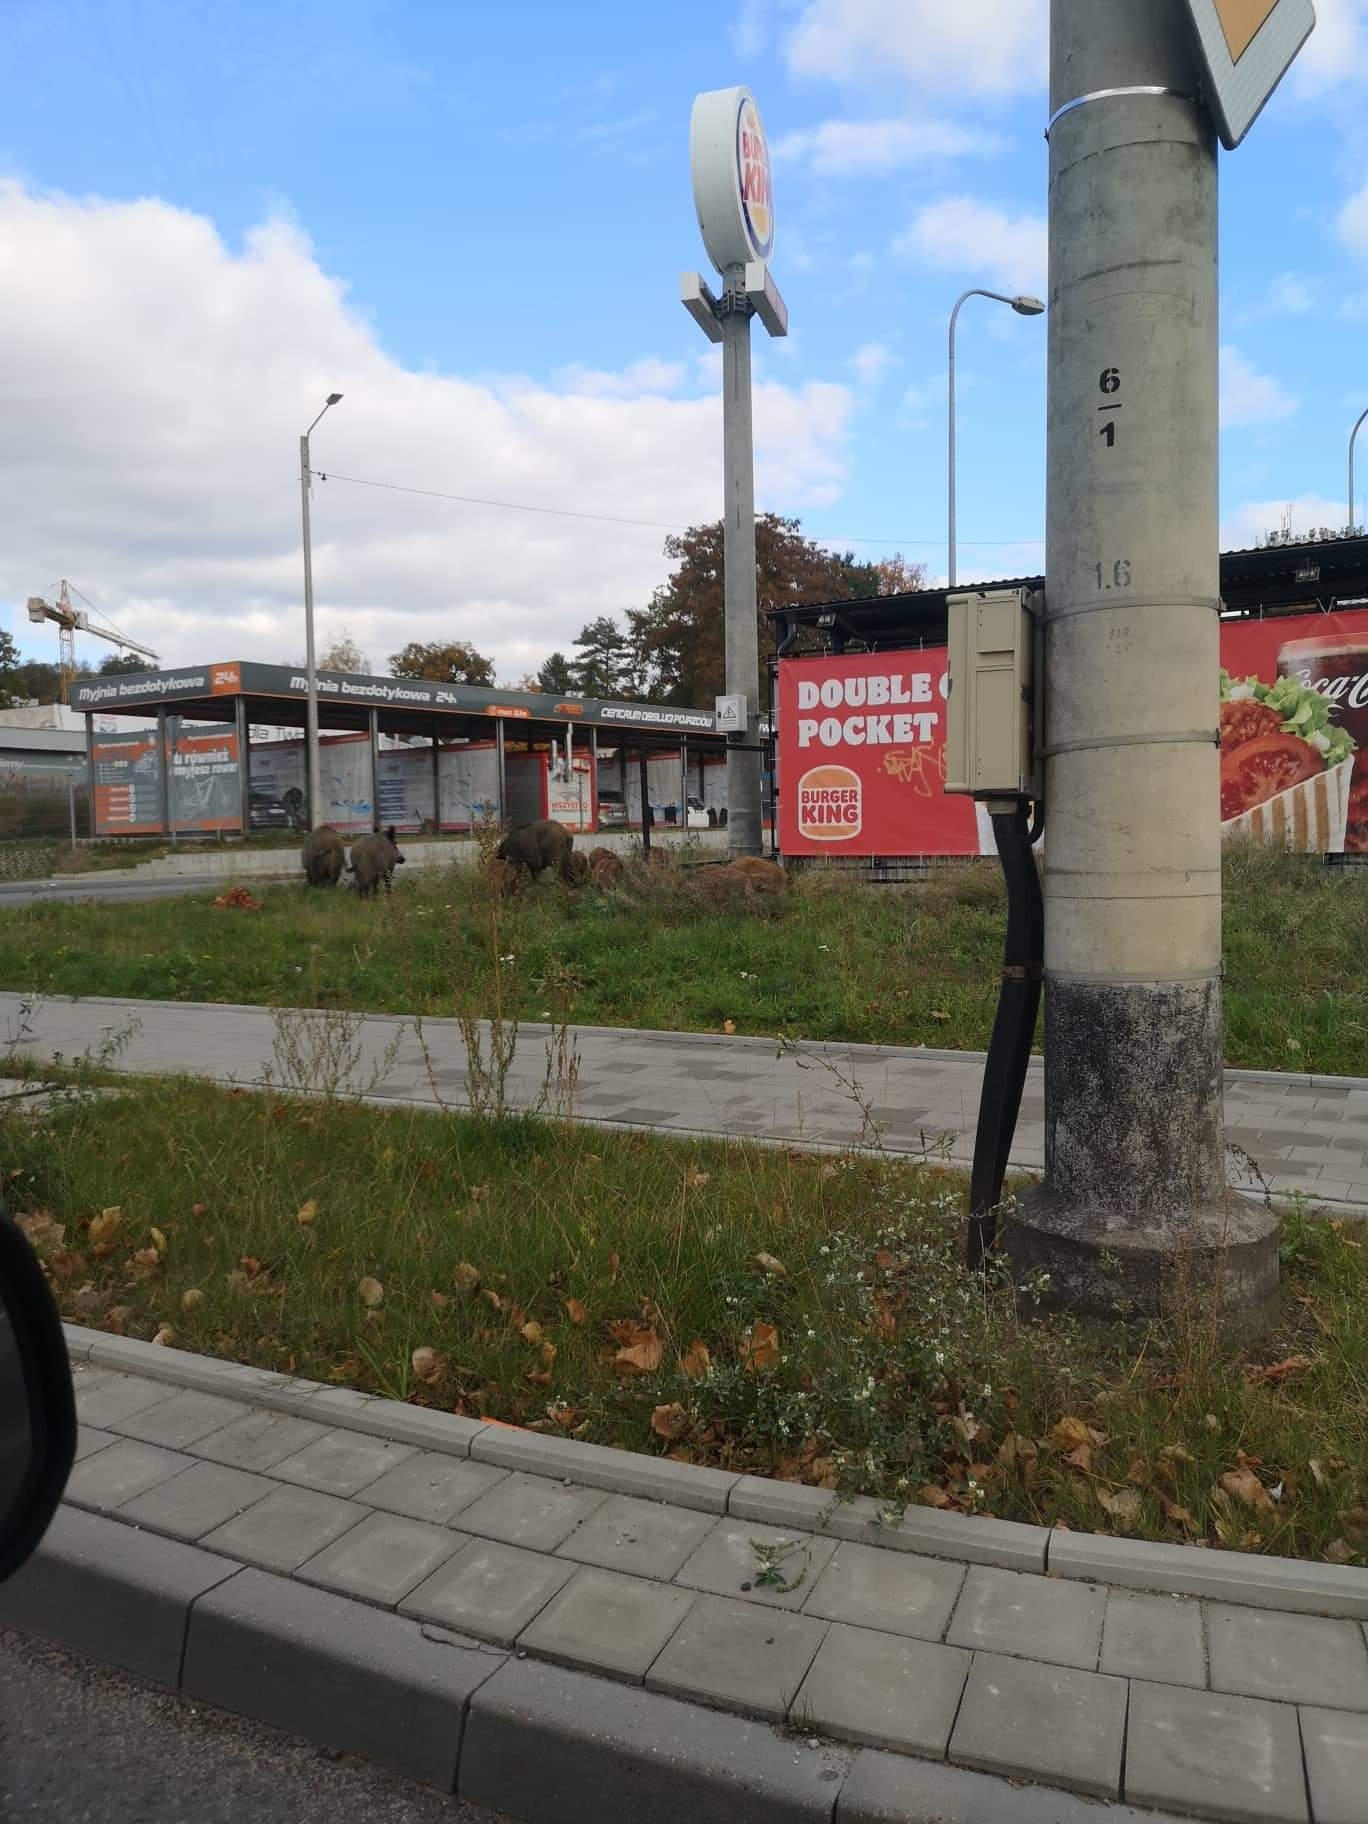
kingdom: Animalia
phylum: Chordata
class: Mammalia
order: Artiodactyla
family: Suidae
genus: Sus
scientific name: Sus scrofa
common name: Wild boar
